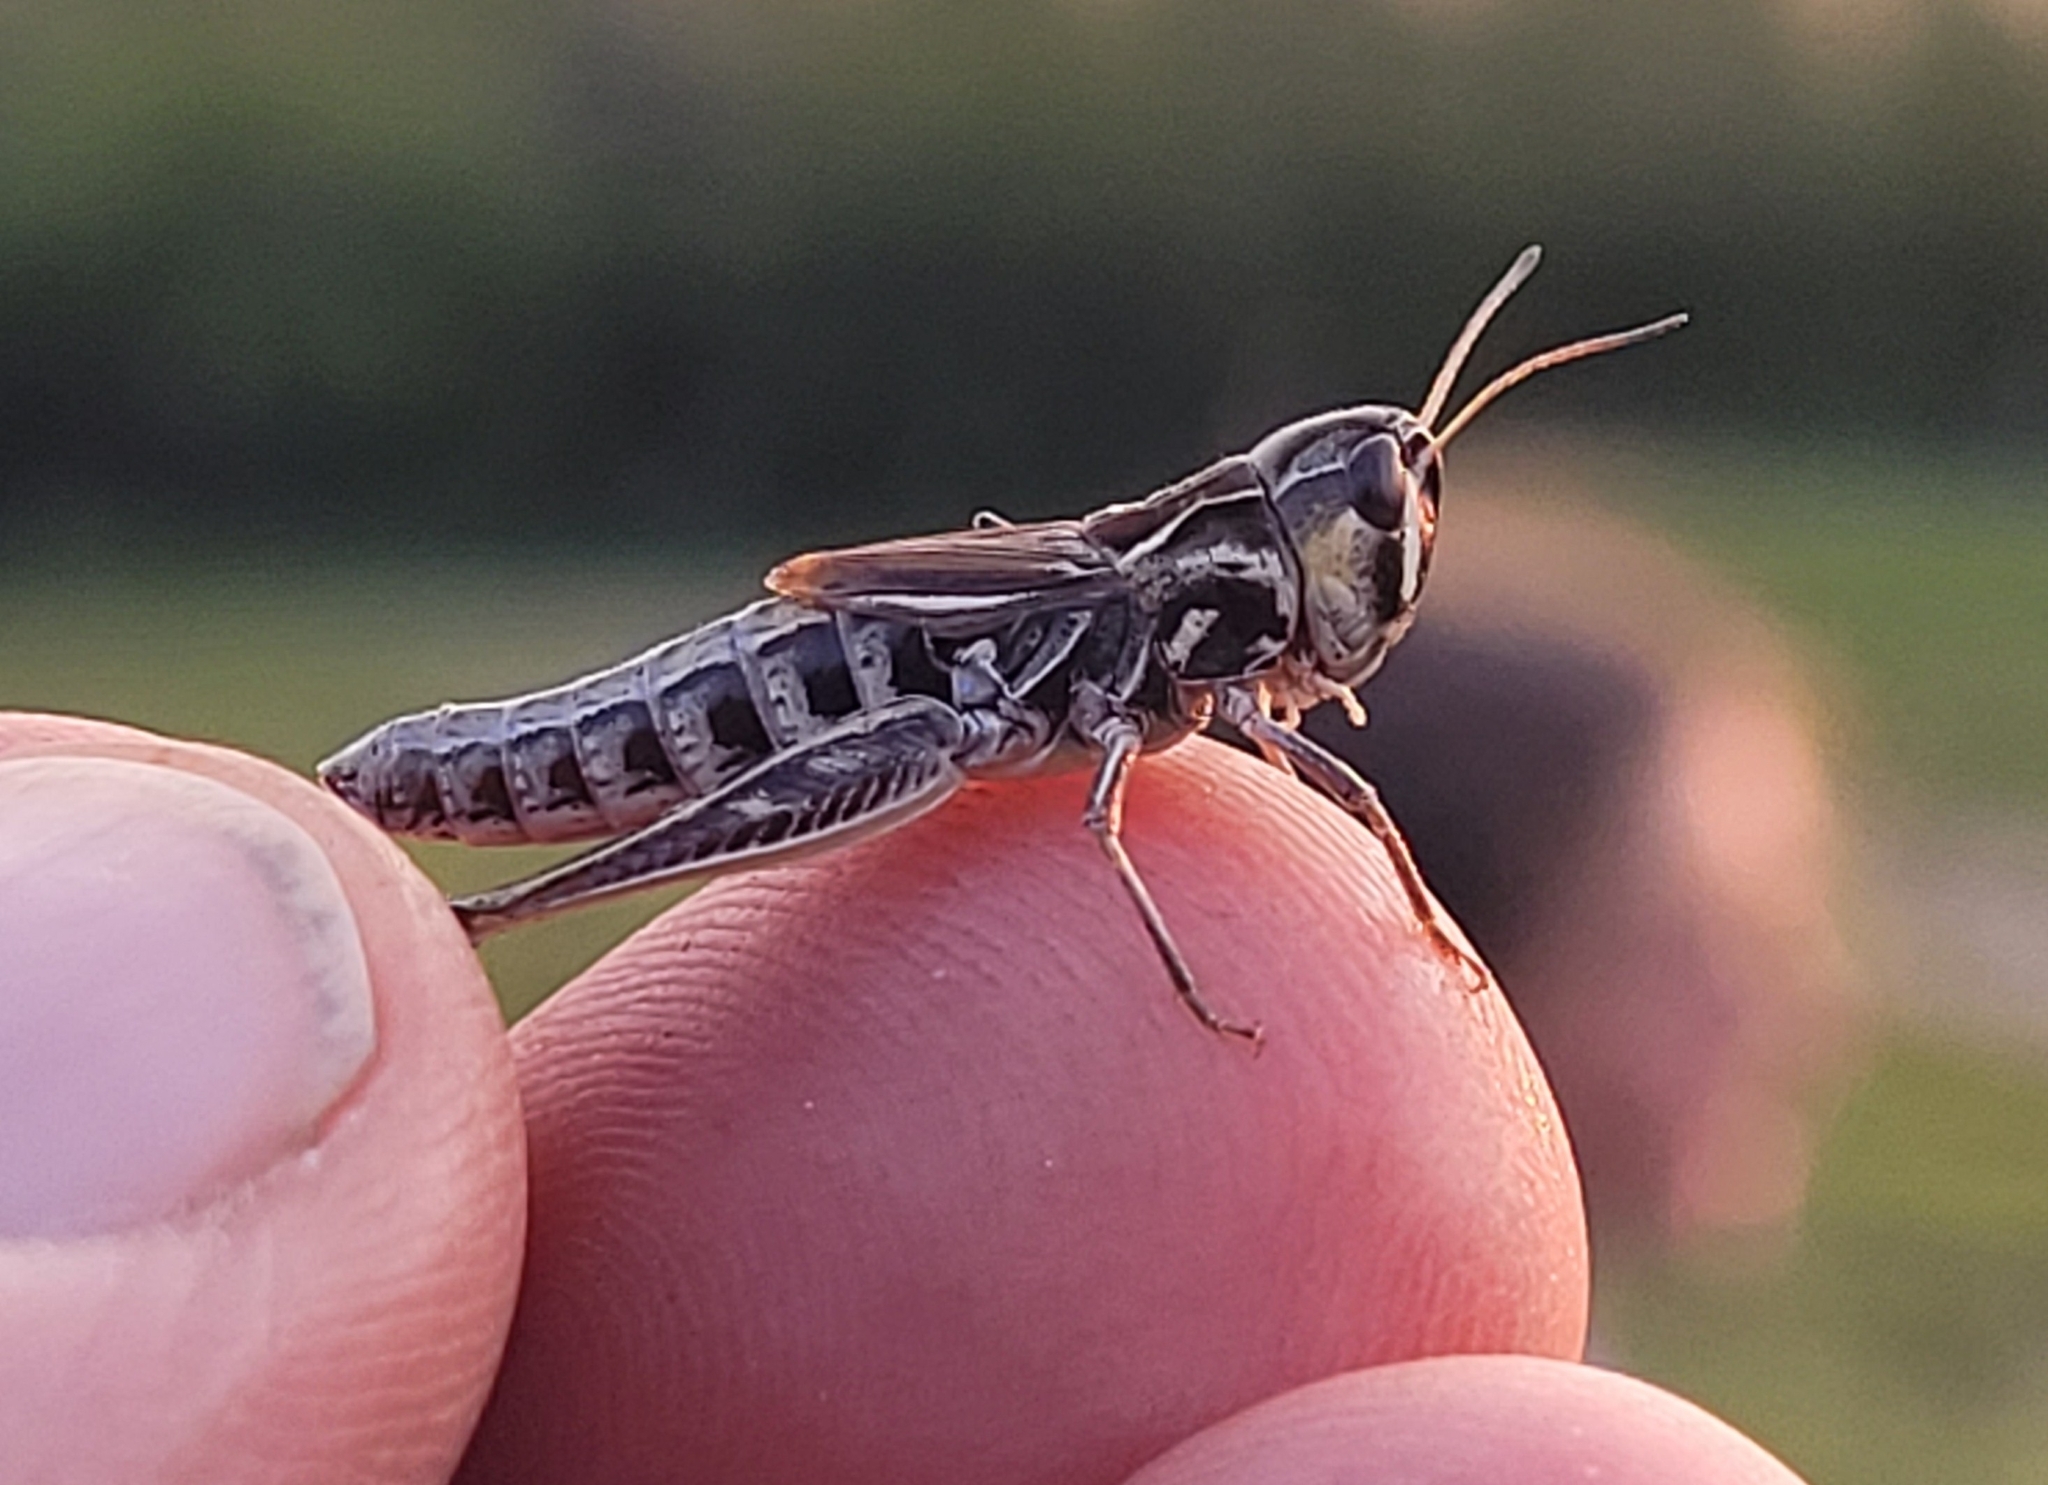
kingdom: Animalia
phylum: Arthropoda
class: Insecta
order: Orthoptera
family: Acrididae
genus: Aeropedellus
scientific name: Aeropedellus clavatus
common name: Clubhorned grasshopper
